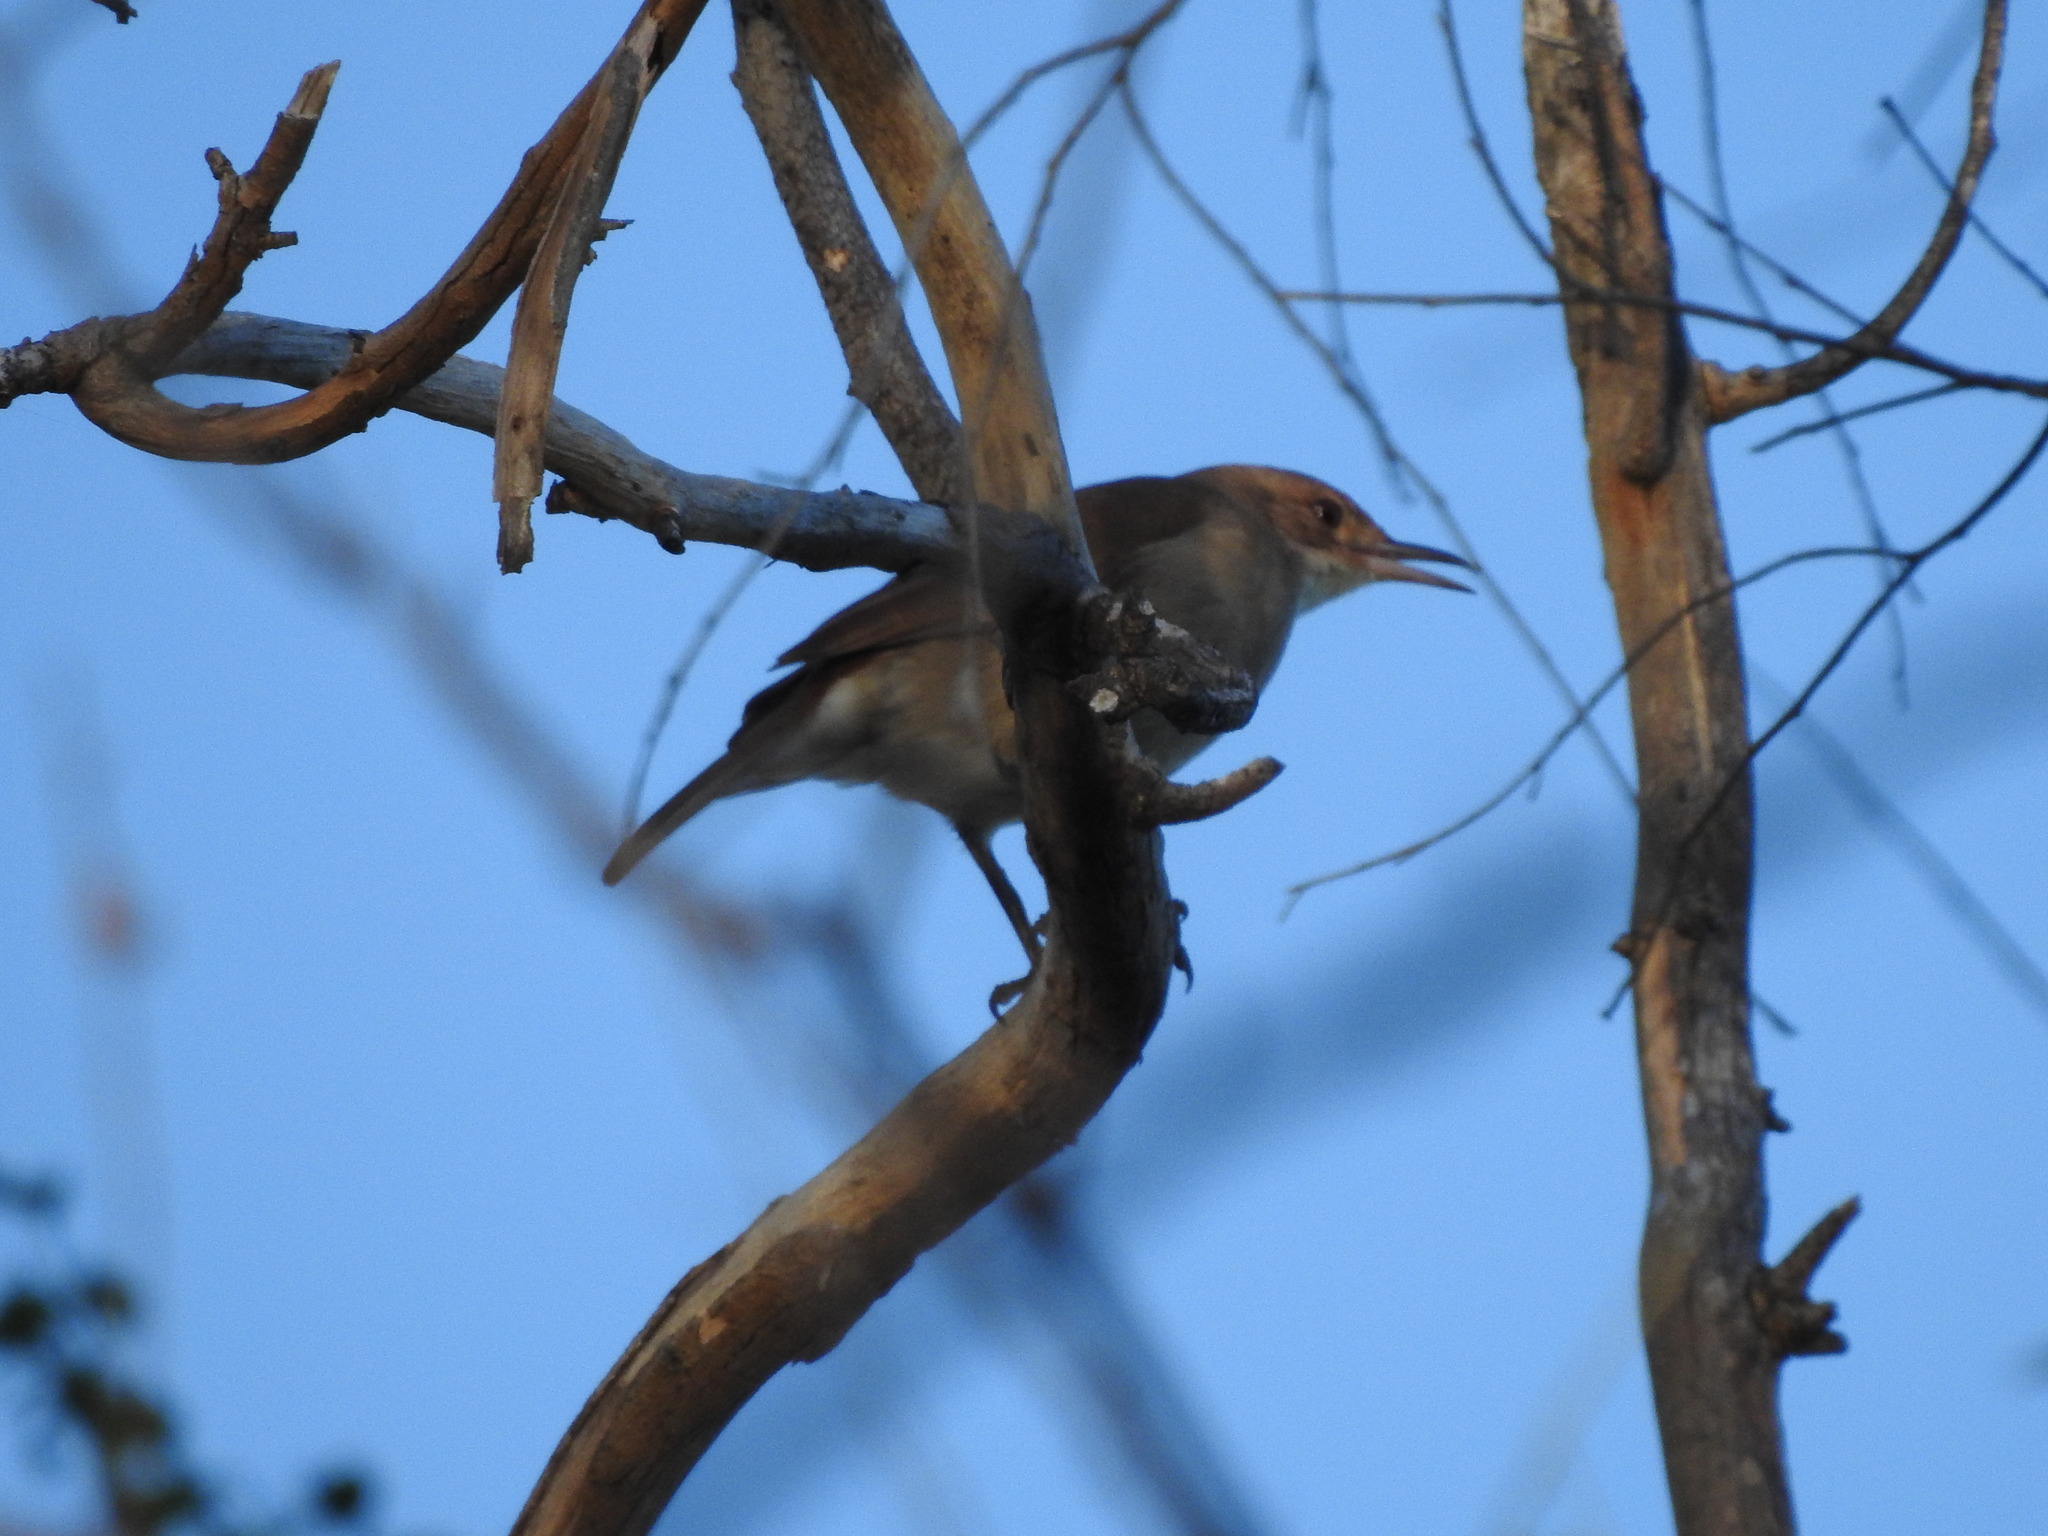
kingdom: Animalia
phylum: Chordata
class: Aves
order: Passeriformes
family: Furnariidae
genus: Furnarius
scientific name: Furnarius rufus
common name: Rufous hornero
